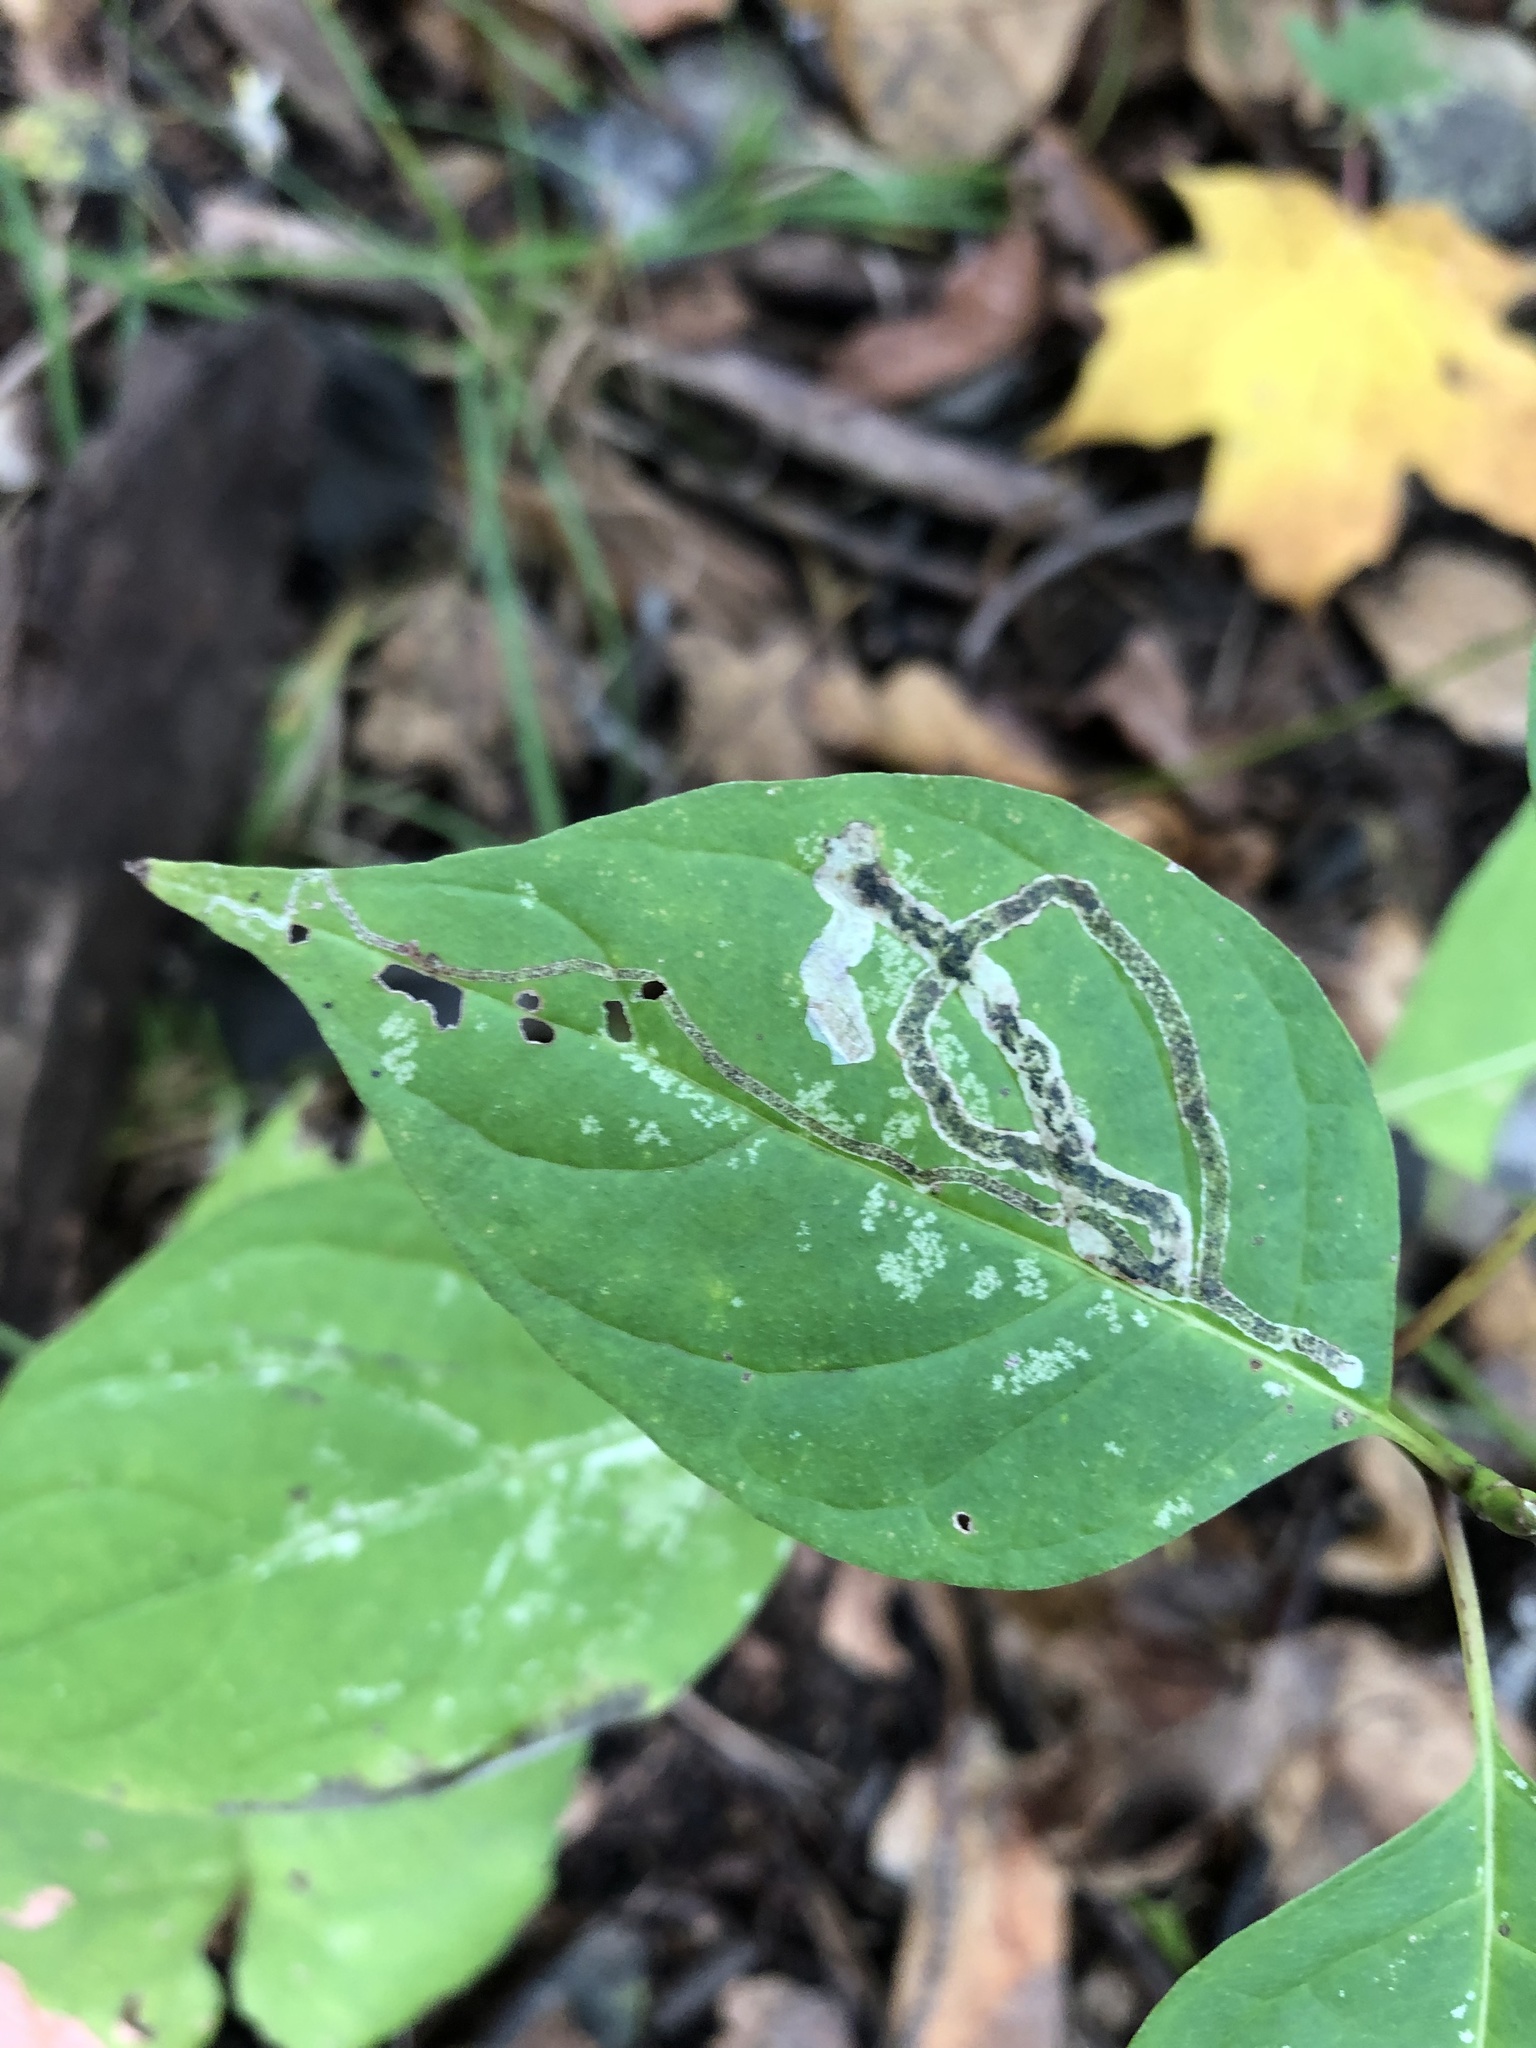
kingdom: Animalia
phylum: Arthropoda
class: Insecta
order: Diptera
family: Agromyzidae
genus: Phytomyza
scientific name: Phytomyza agromyzina
